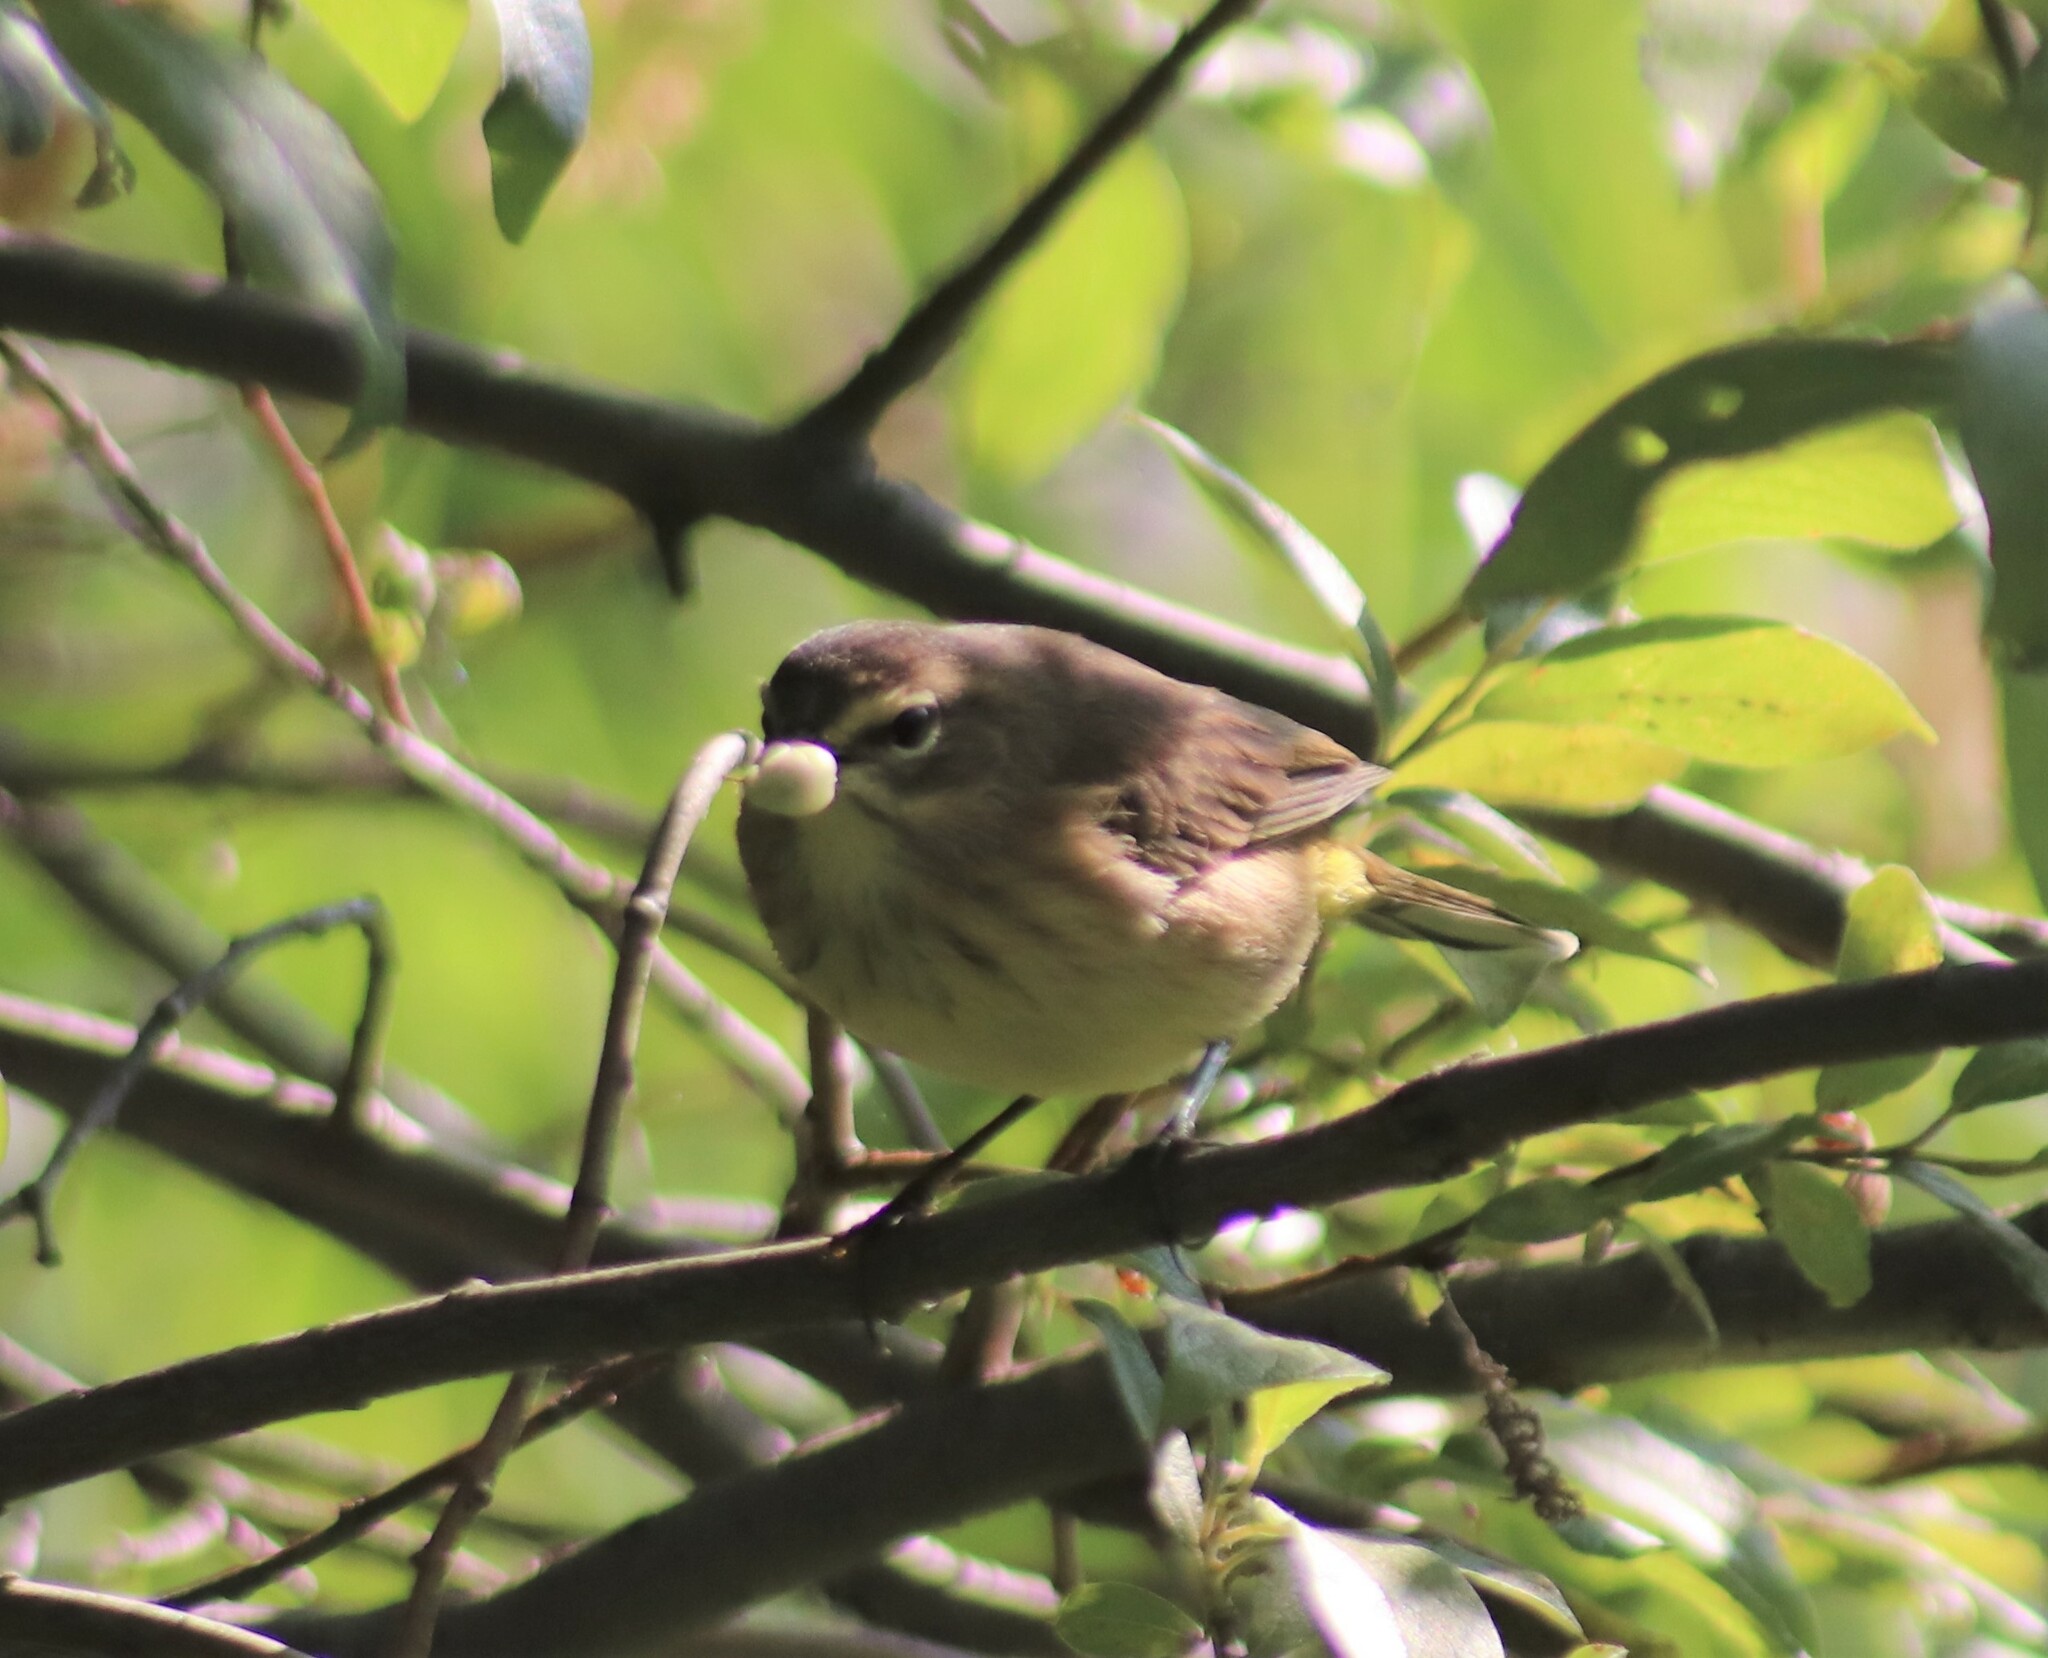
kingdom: Animalia
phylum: Chordata
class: Aves
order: Passeriformes
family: Parulidae
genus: Setophaga
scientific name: Setophaga palmarum
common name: Palm warbler
